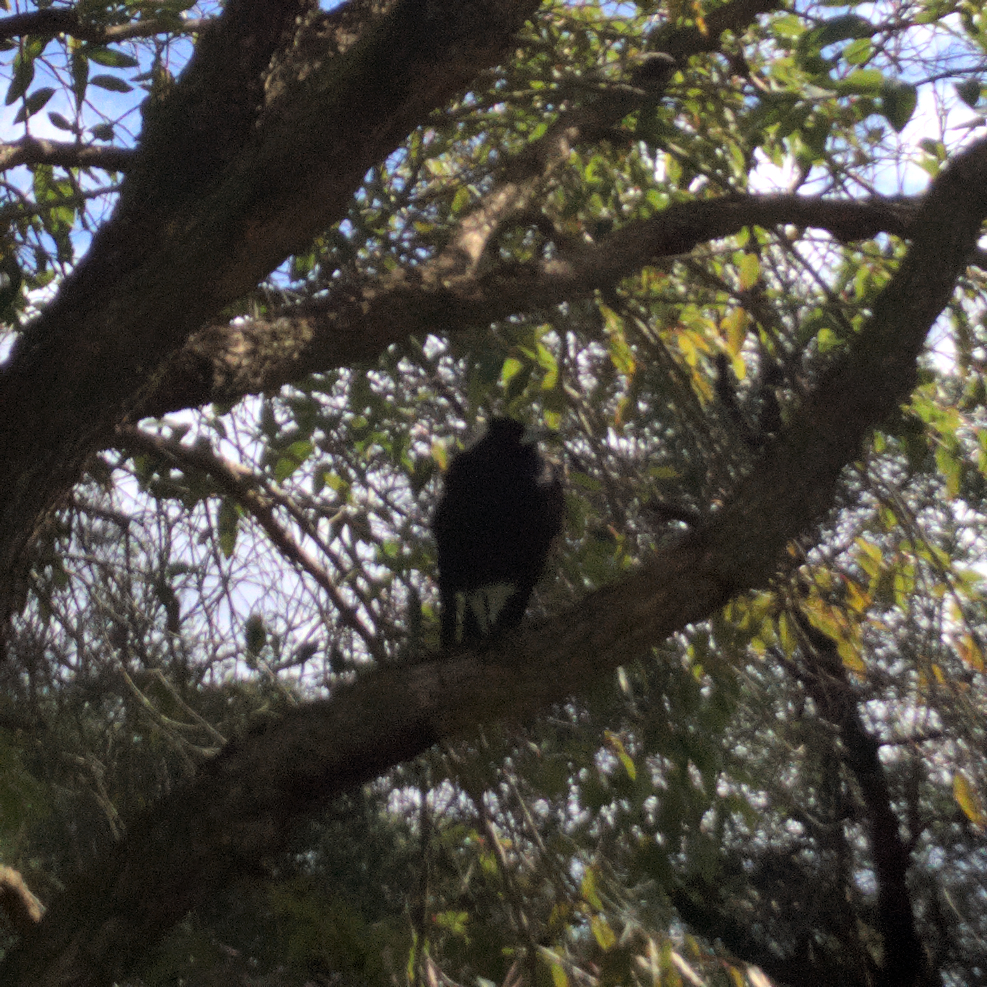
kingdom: Animalia
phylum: Chordata
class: Aves
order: Passeriformes
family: Cracticidae
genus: Gymnorhina
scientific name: Gymnorhina tibicen
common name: Australian magpie
